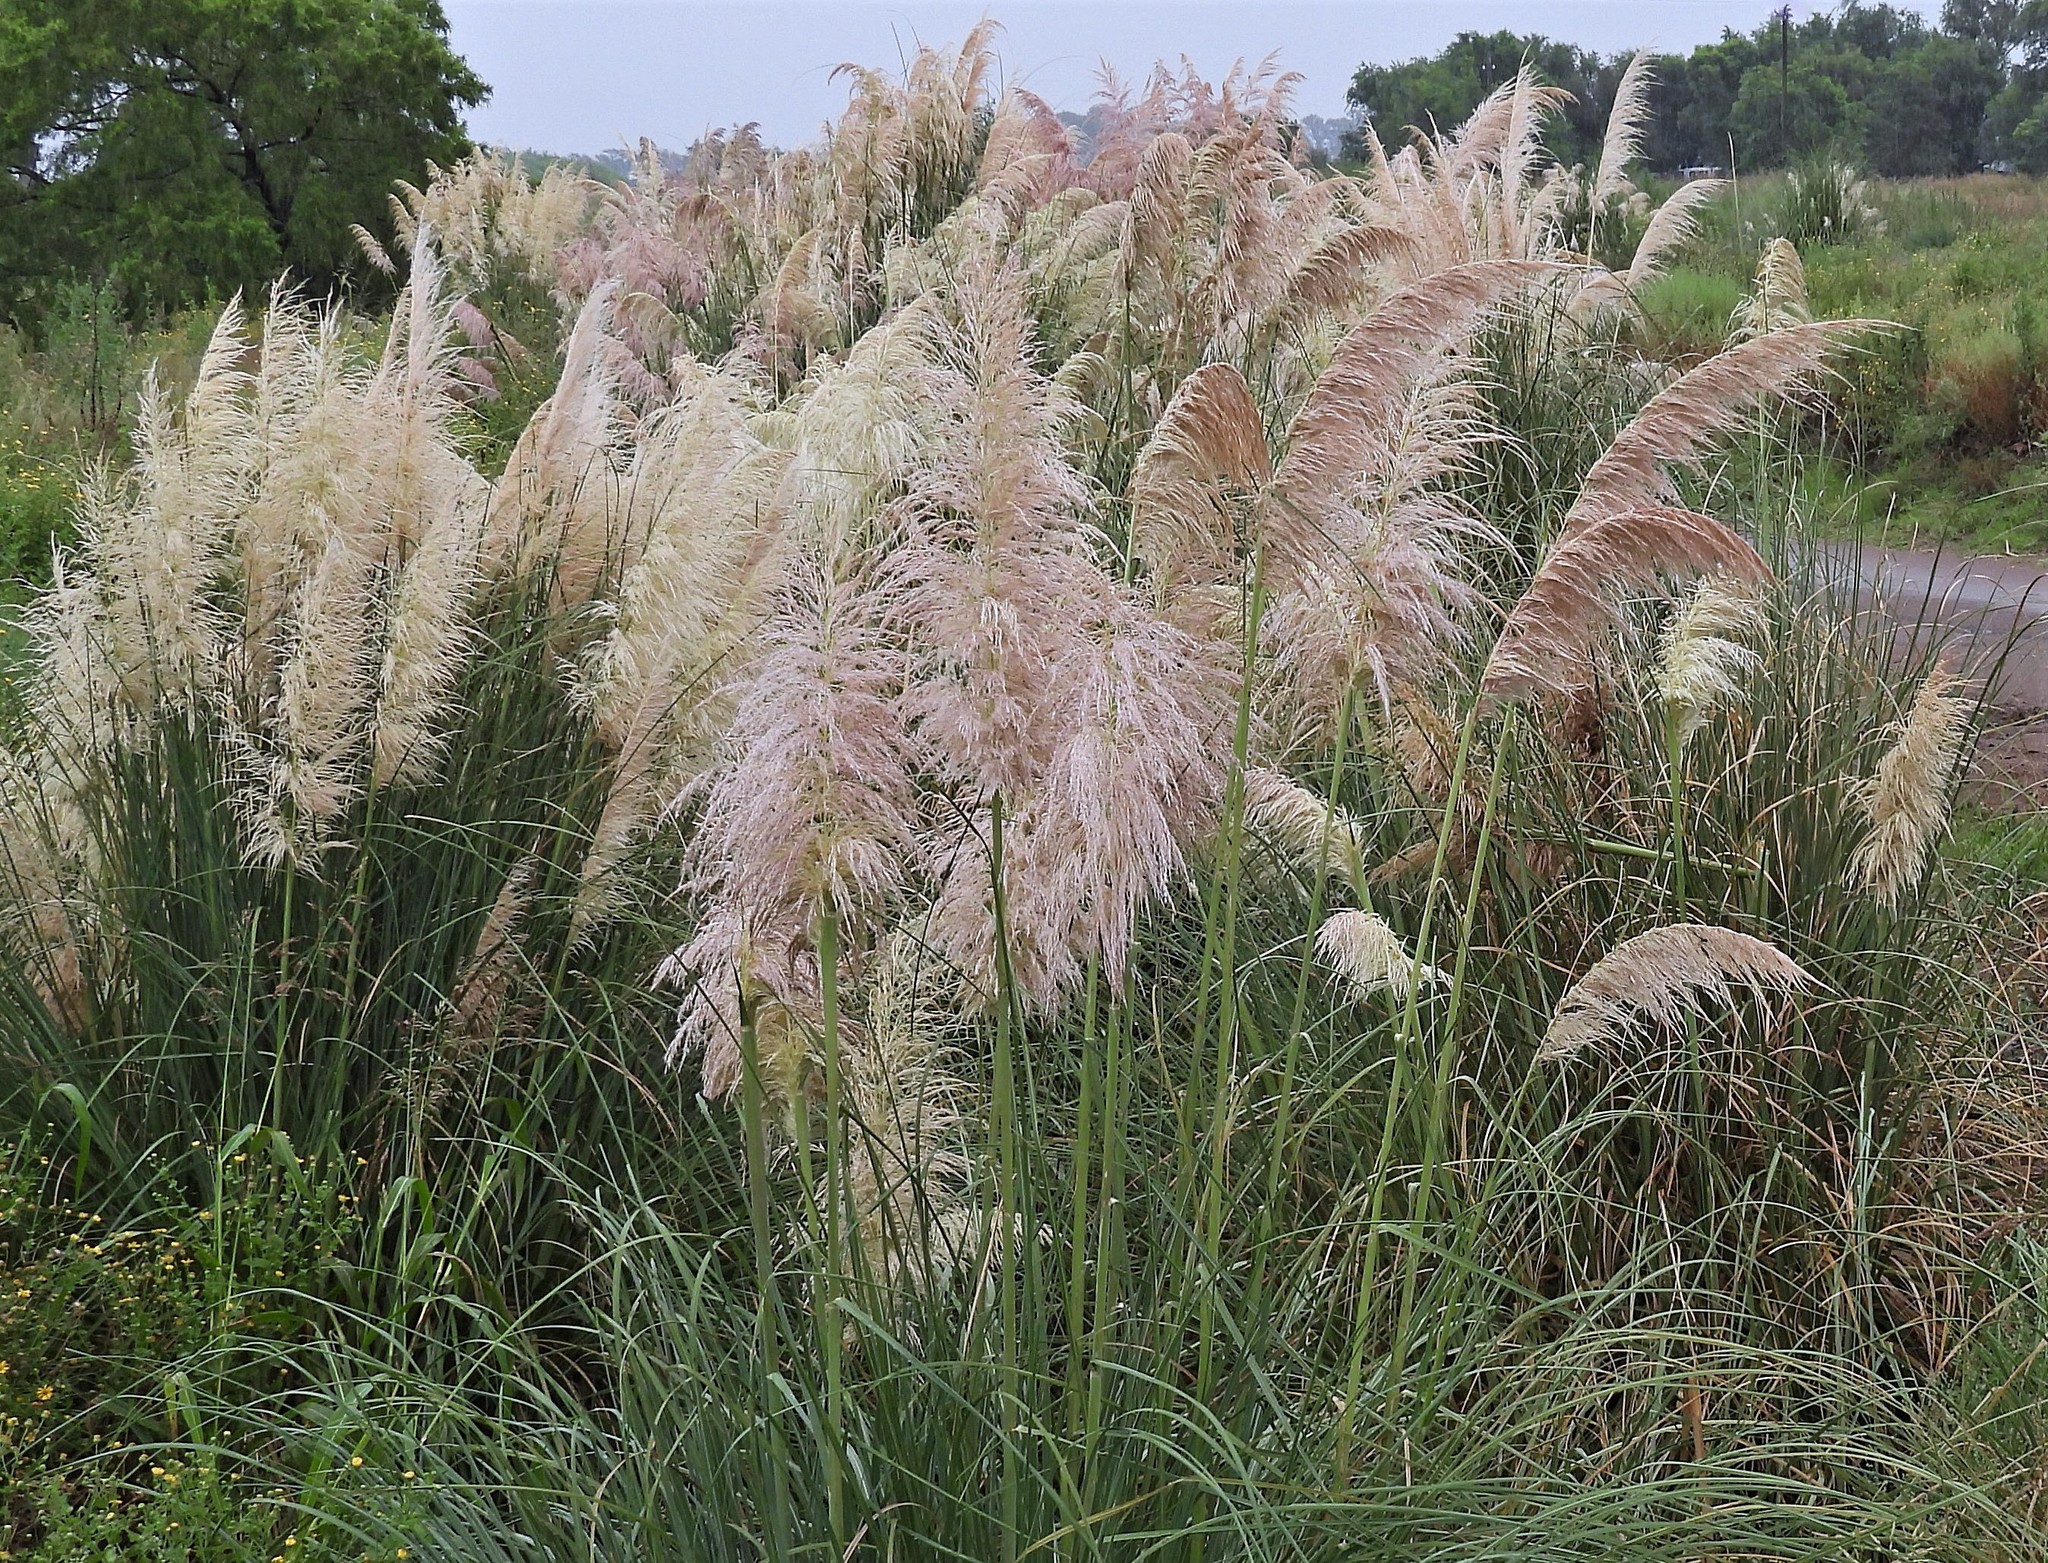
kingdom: Plantae
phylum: Tracheophyta
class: Liliopsida
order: Poales
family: Poaceae
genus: Cortaderia
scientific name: Cortaderia selloana
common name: Uruguayan pampas grass
